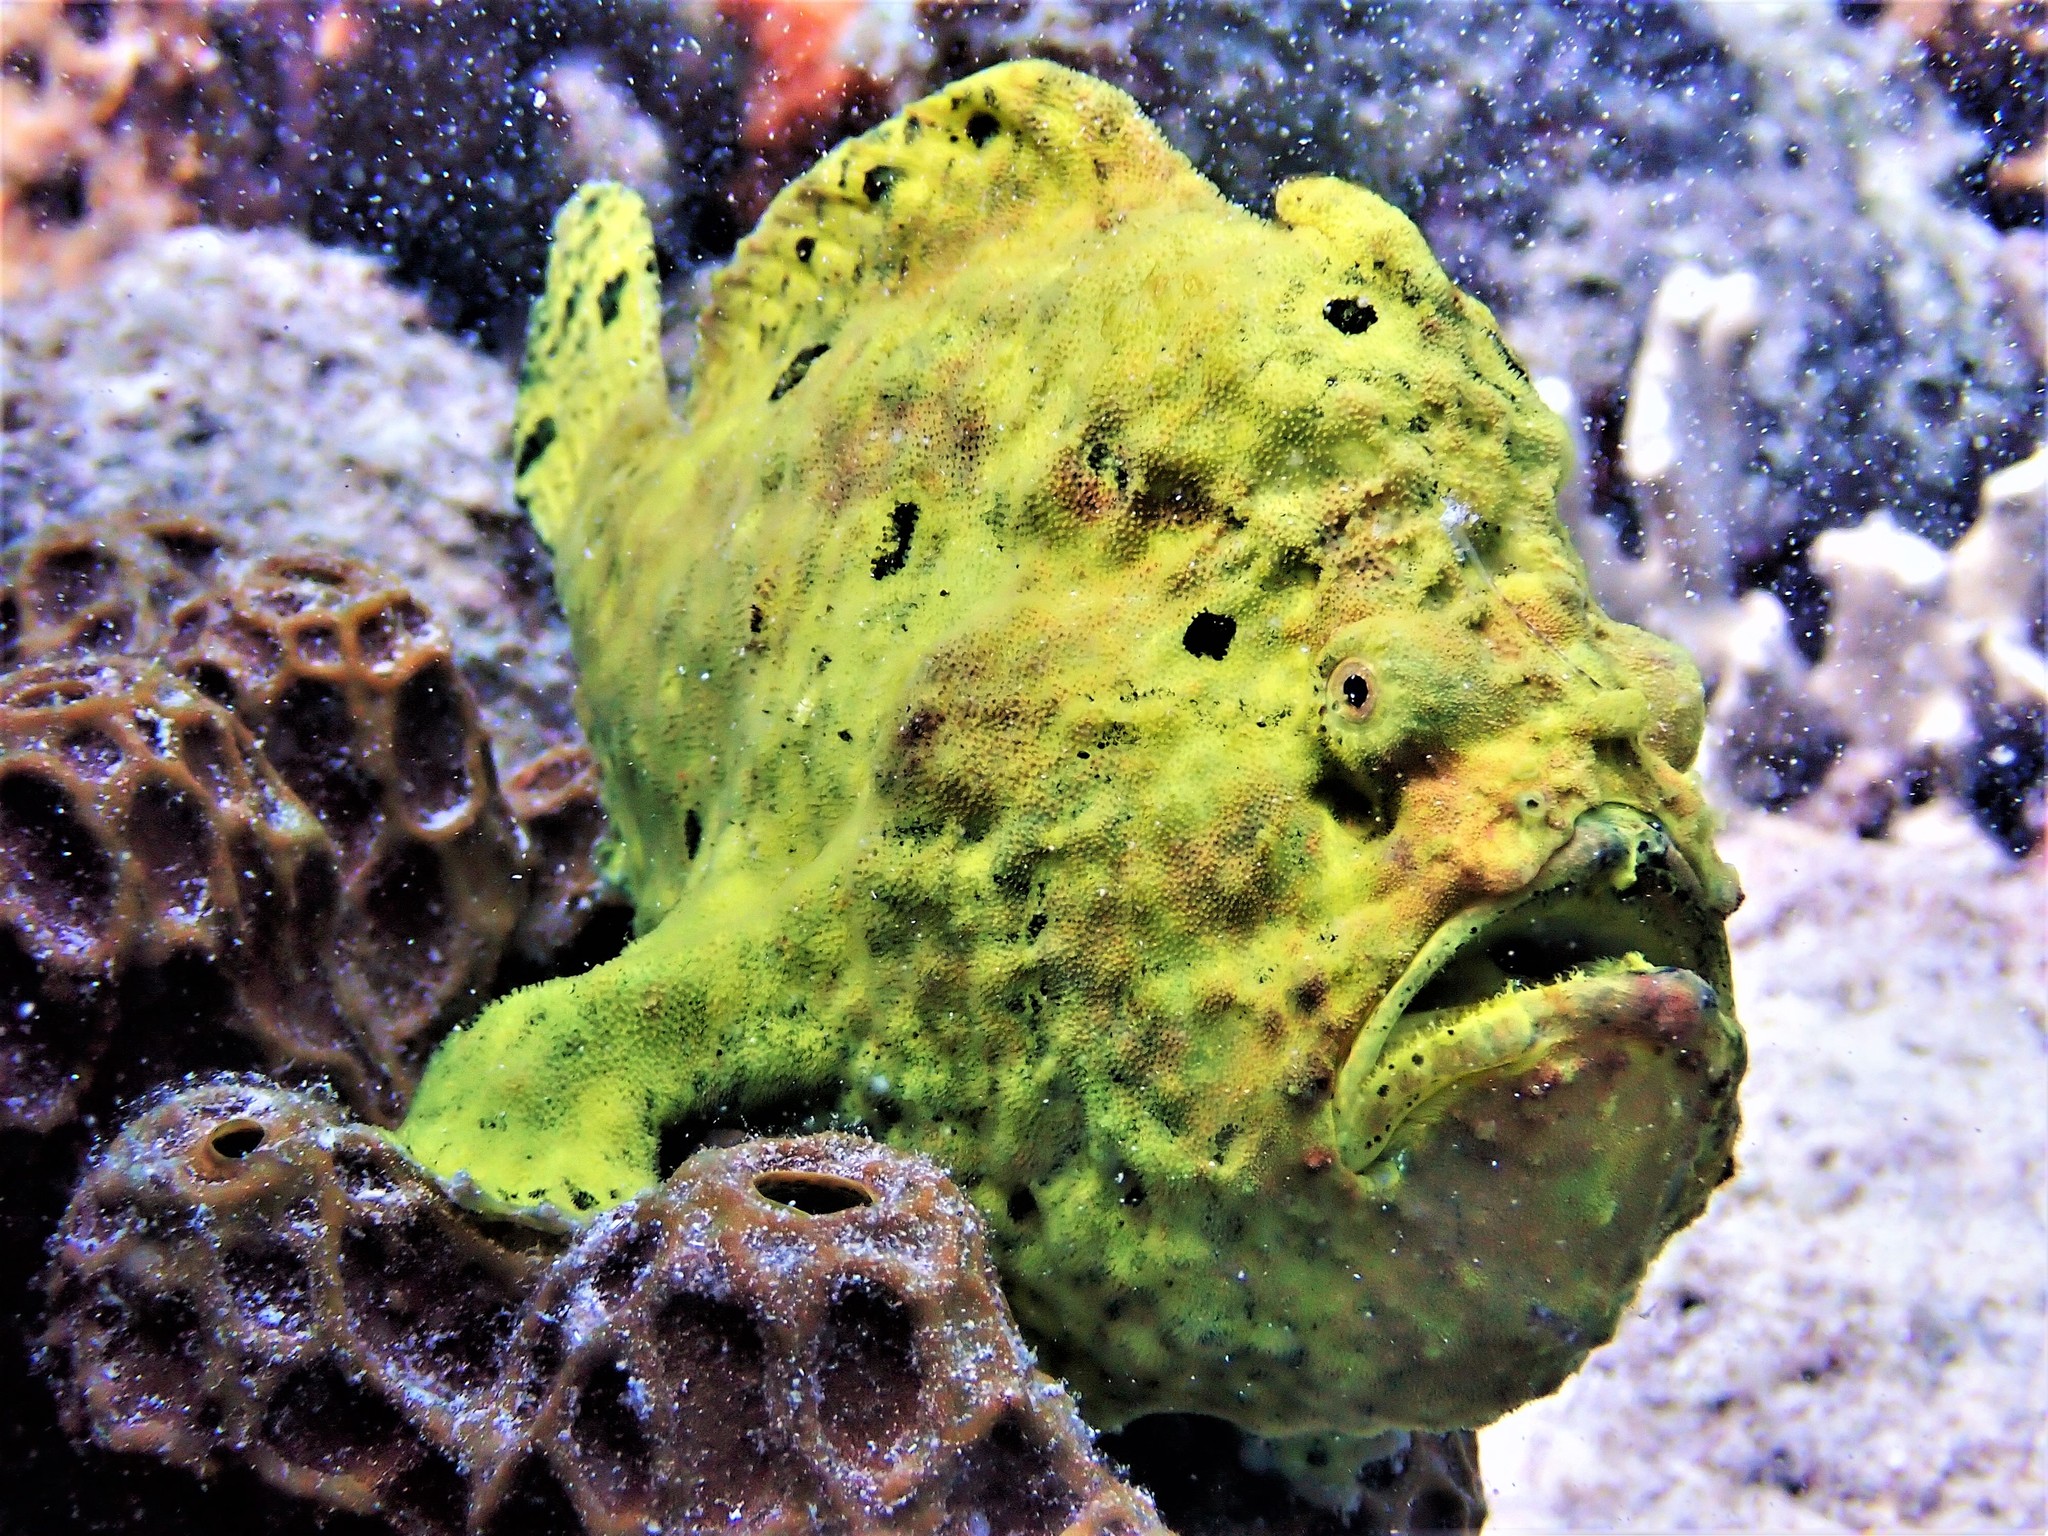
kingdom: Animalia
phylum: Chordata
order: Lophiiformes
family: Antennariidae
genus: Antennarius
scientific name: Antennarius multiocellatus
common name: Longlure frogfish
